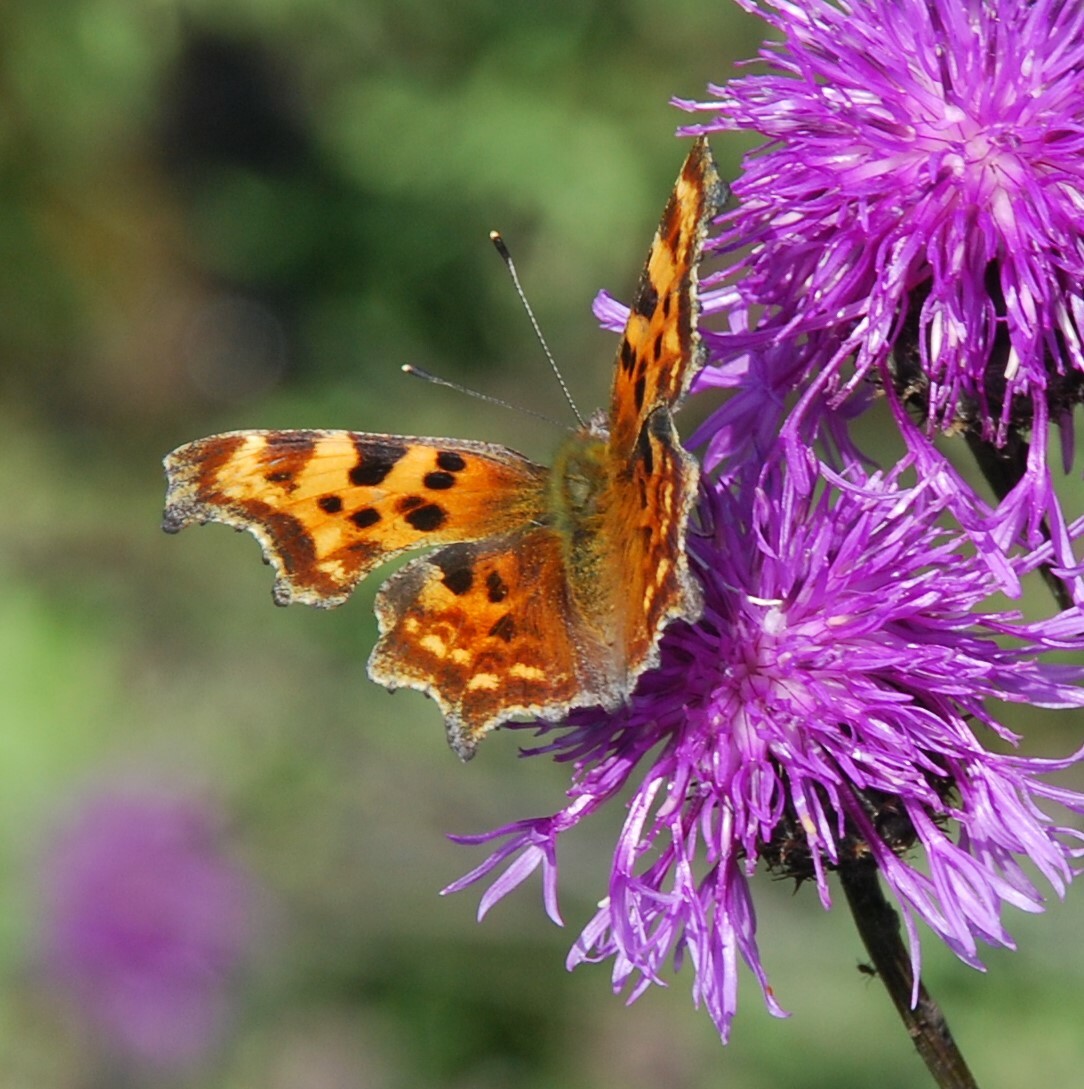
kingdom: Animalia
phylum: Arthropoda
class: Insecta
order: Lepidoptera
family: Nymphalidae
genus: Polygonia
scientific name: Polygonia c-album
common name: Comma
